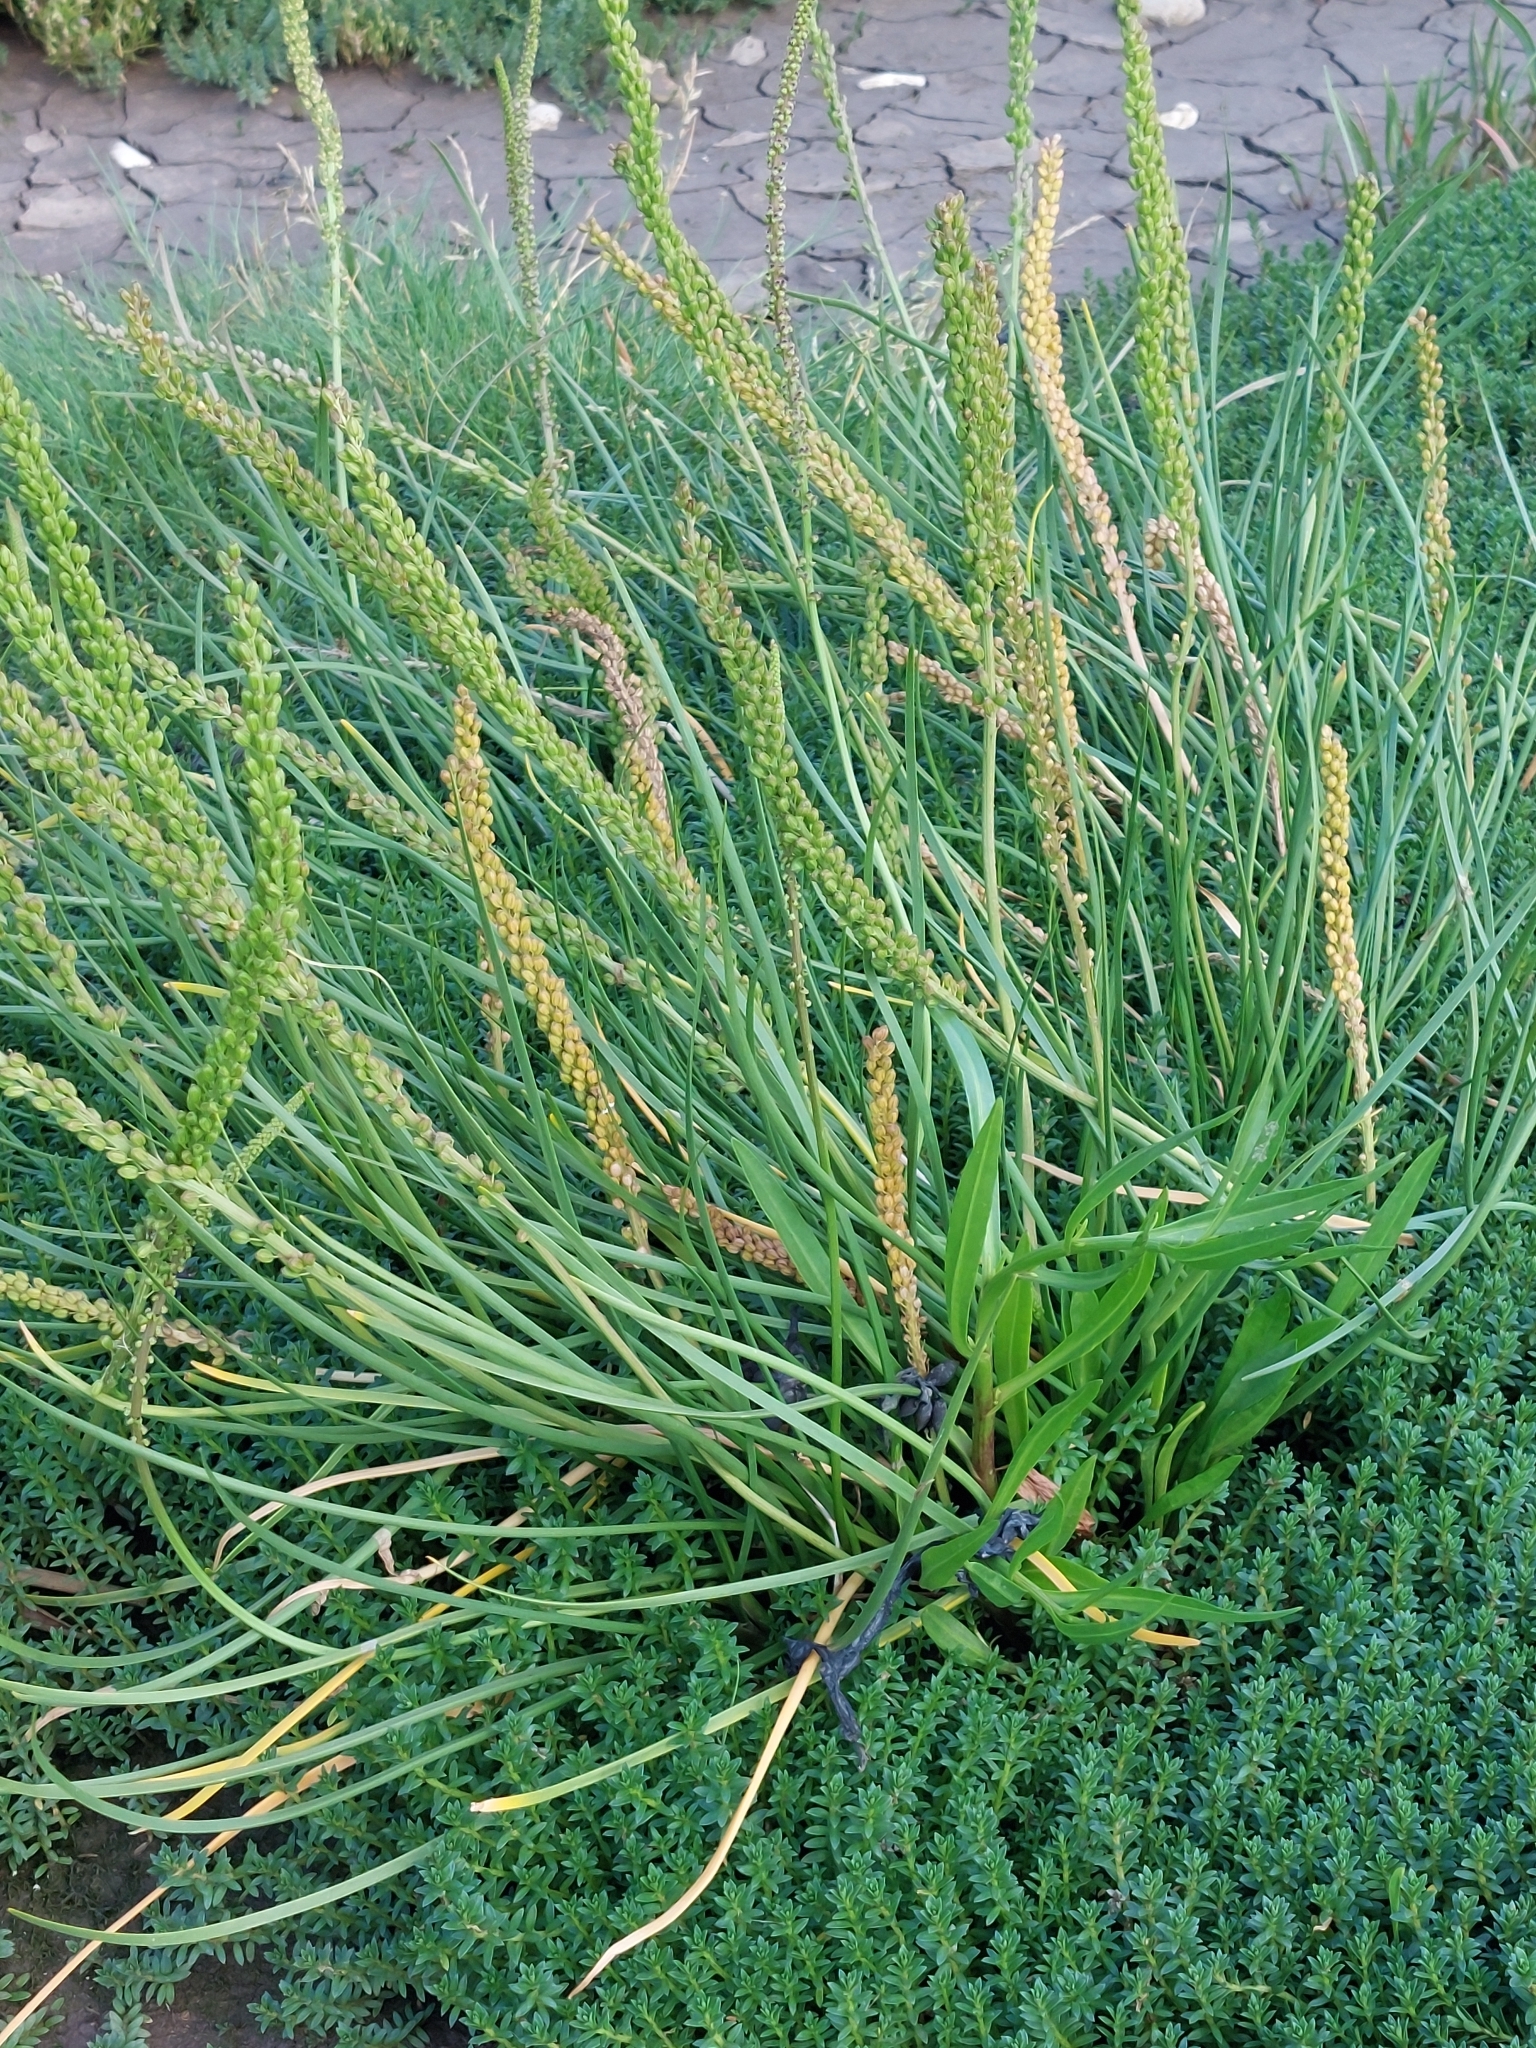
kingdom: Plantae
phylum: Tracheophyta
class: Liliopsida
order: Alismatales
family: Juncaginaceae
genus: Triglochin
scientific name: Triglochin maritima
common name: Sea arrowgrass
